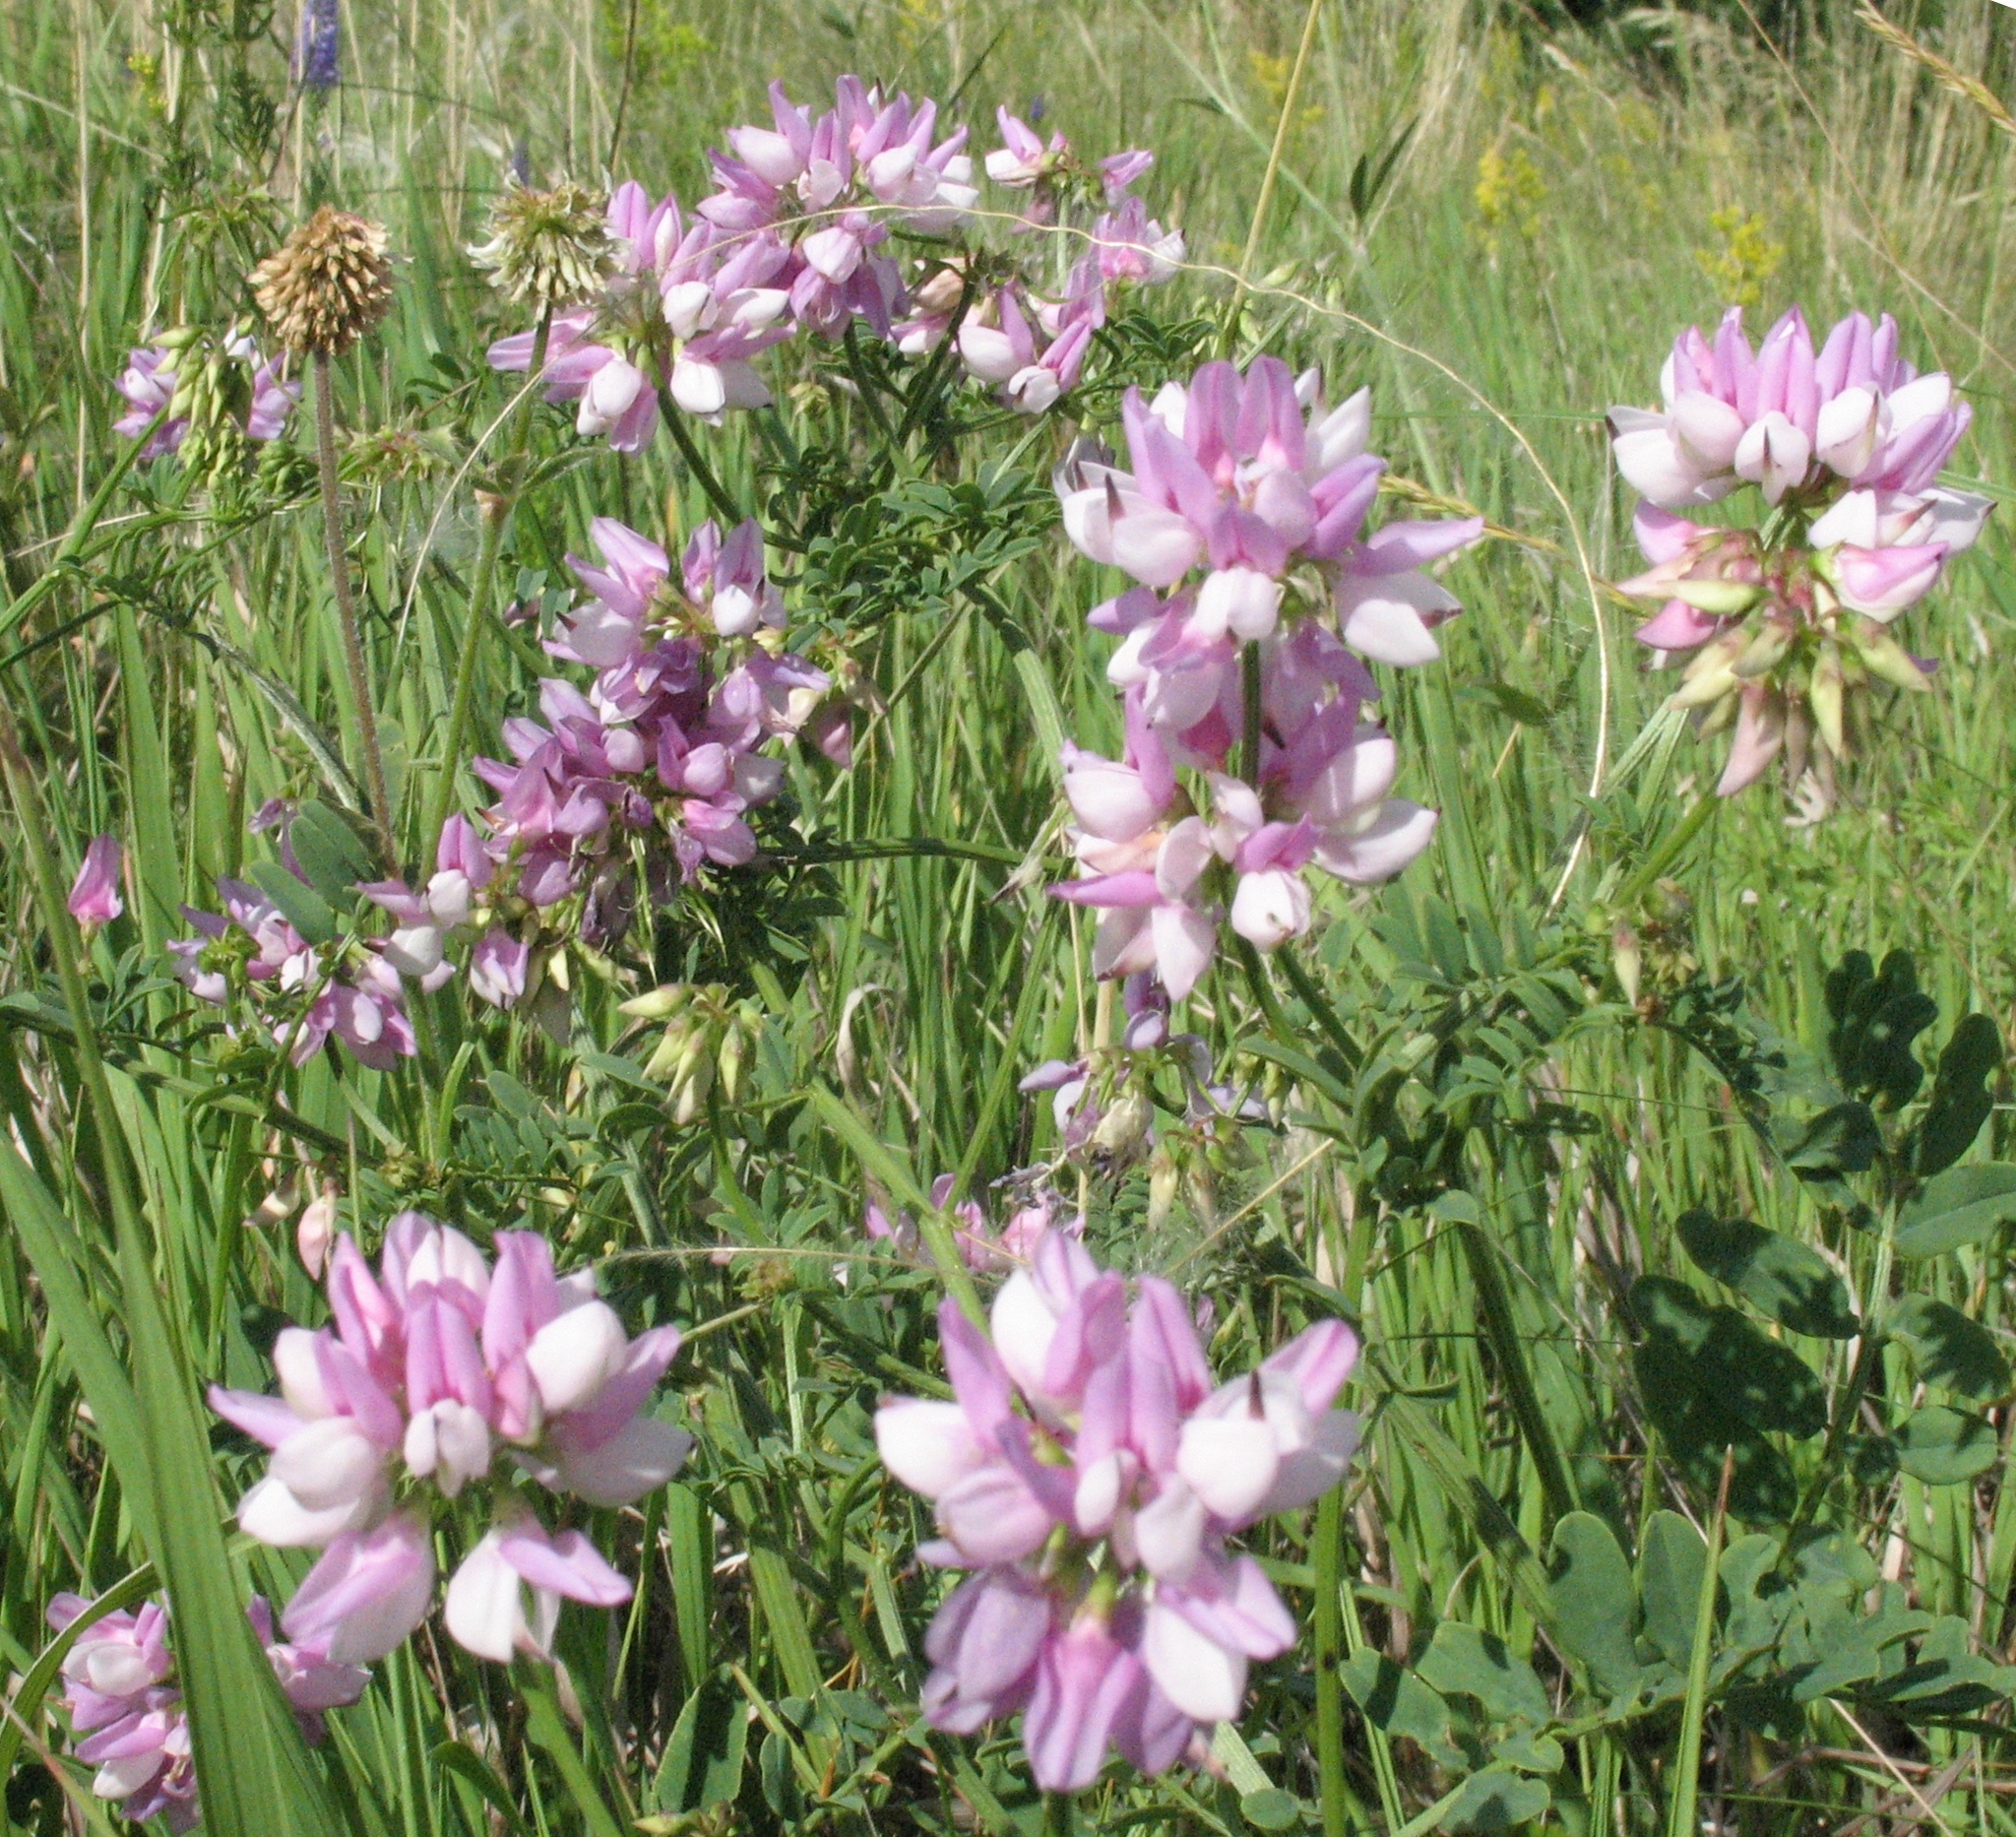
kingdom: Plantae
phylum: Tracheophyta
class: Magnoliopsida
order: Fabales
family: Fabaceae
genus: Coronilla
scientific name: Coronilla varia
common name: Crownvetch
